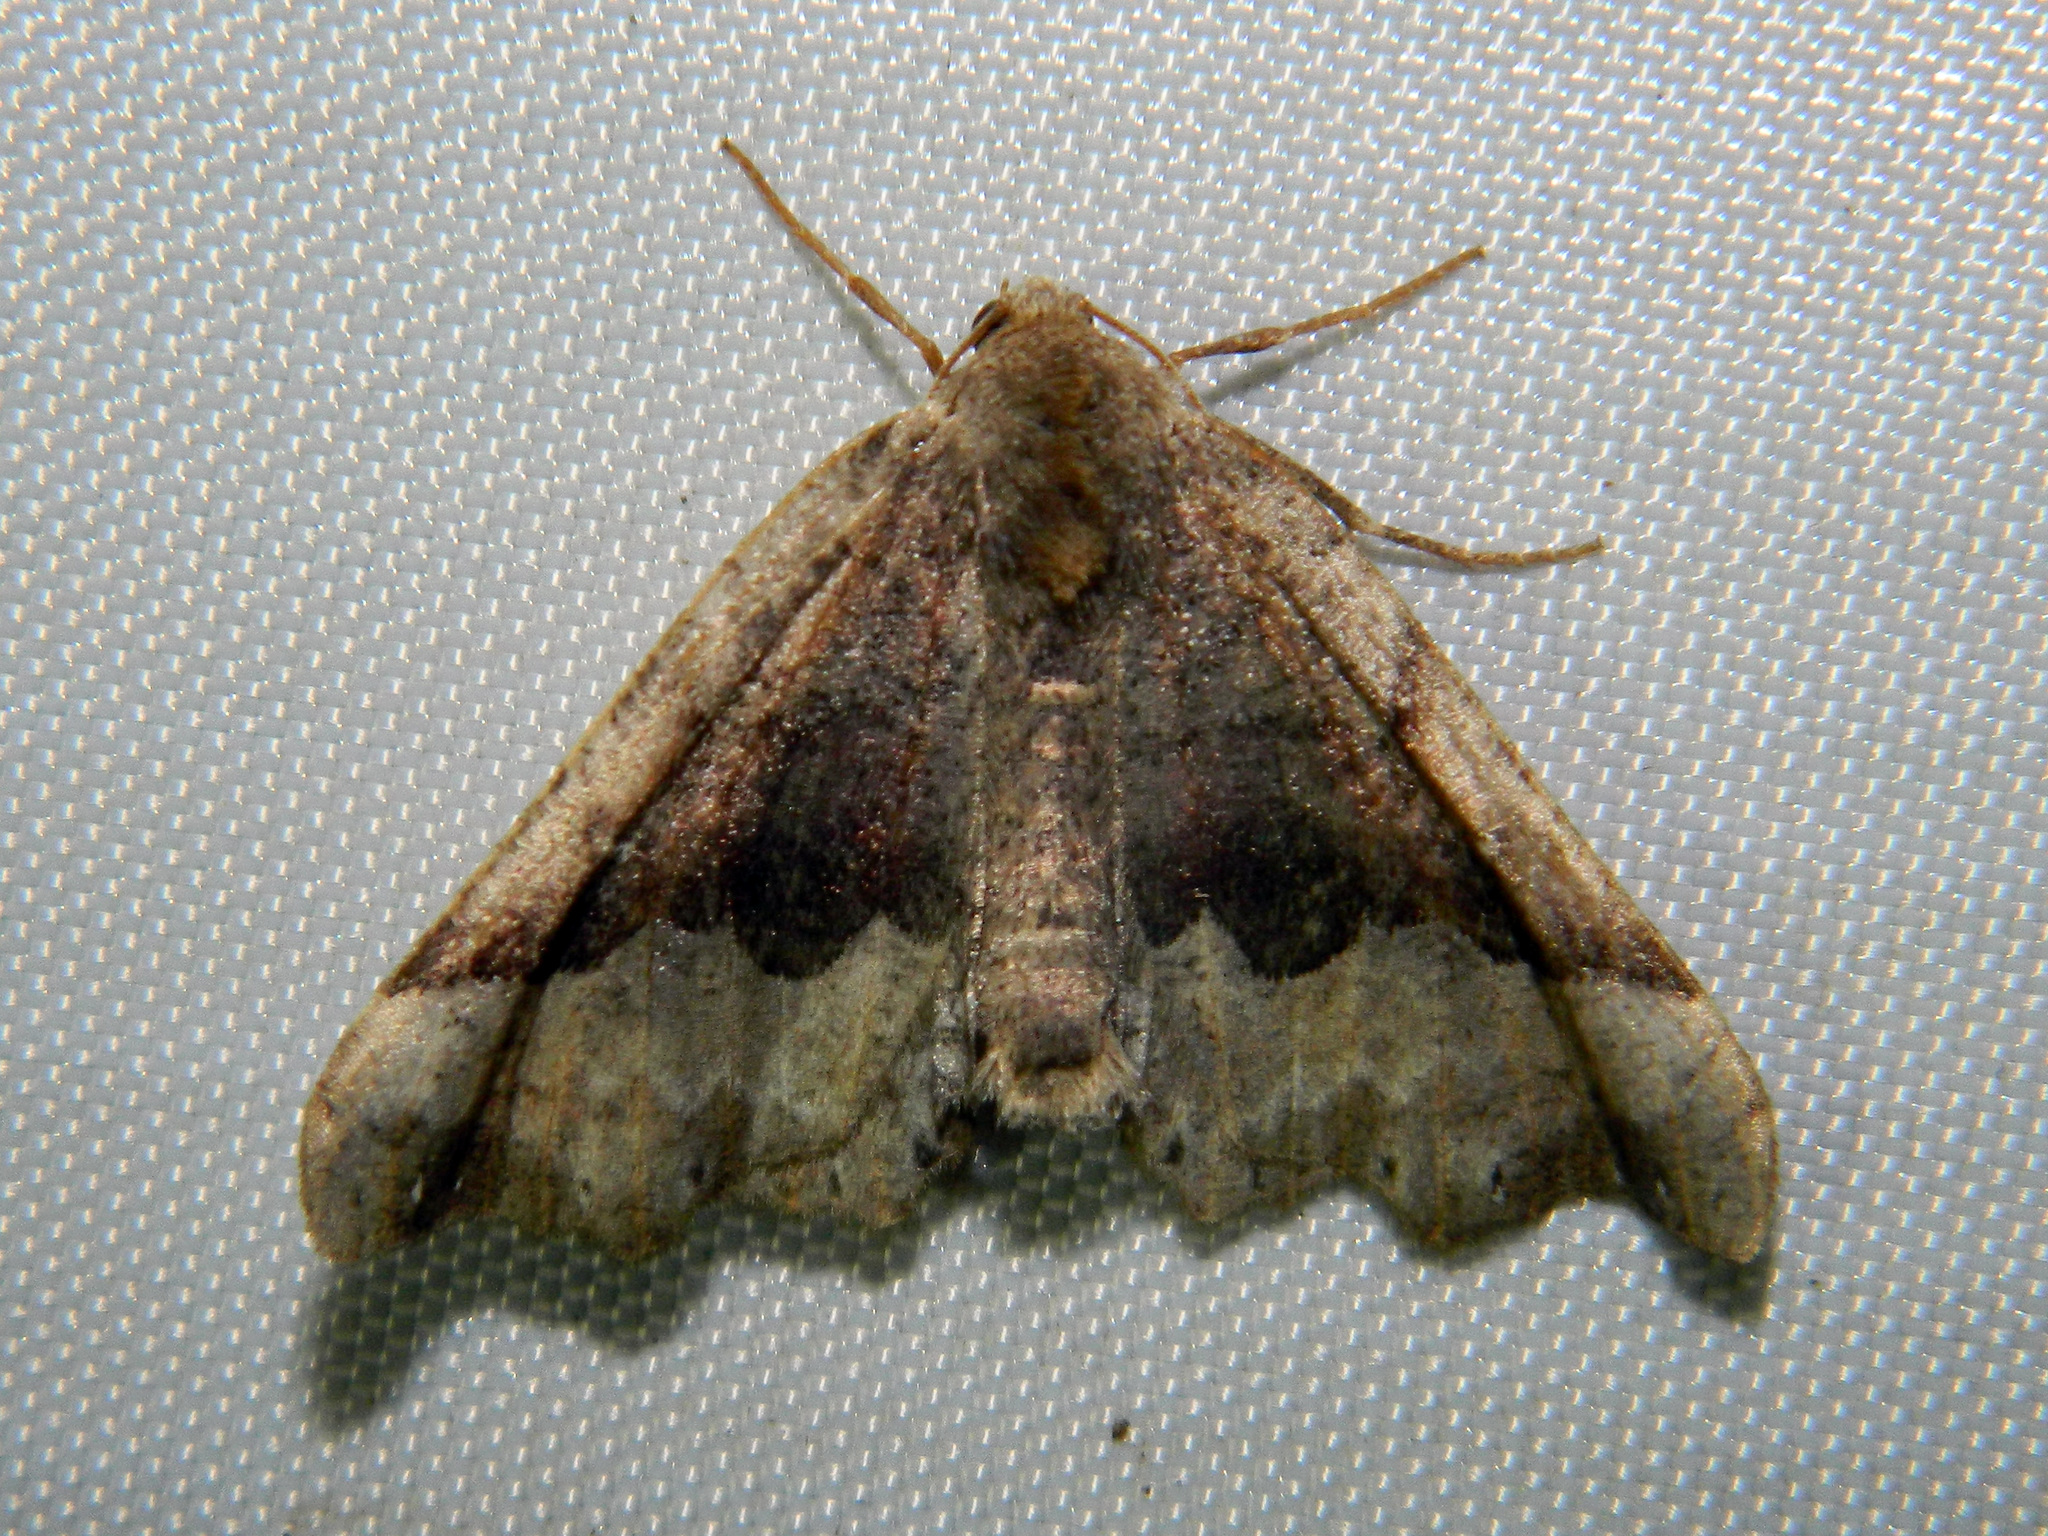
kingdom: Animalia
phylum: Arthropoda
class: Insecta
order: Lepidoptera
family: Geometridae
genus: Pero
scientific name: Pero morrisonaria
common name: Morrison's pero
